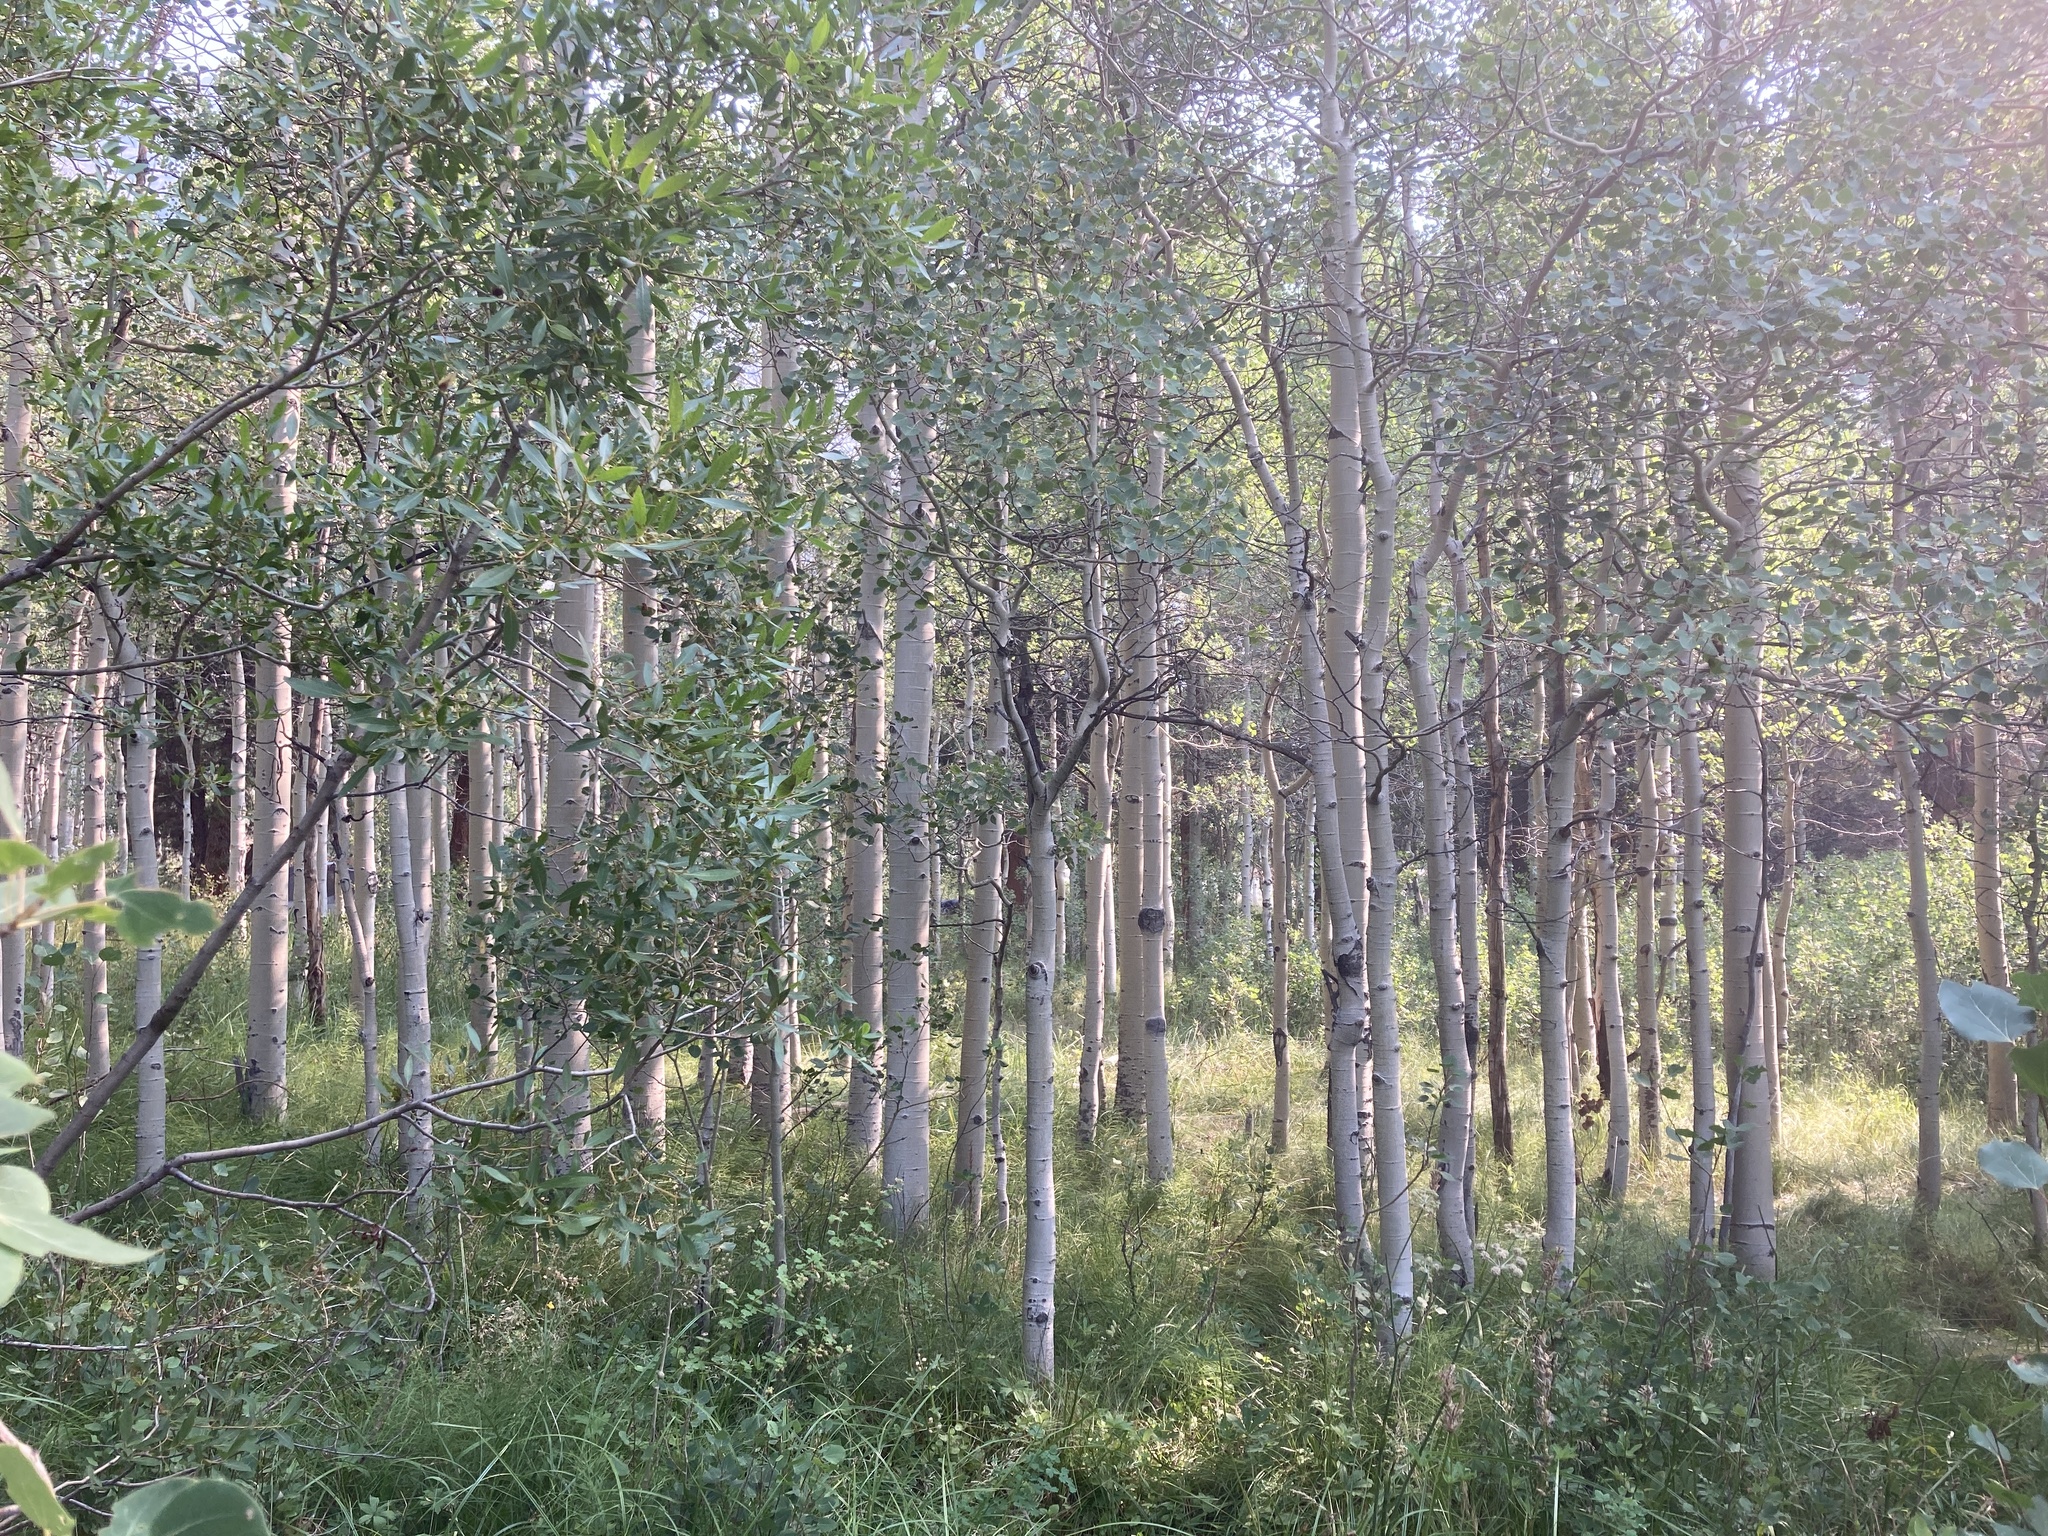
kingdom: Plantae
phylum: Tracheophyta
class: Magnoliopsida
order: Malpighiales
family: Salicaceae
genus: Populus
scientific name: Populus tremuloides
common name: Quaking aspen
